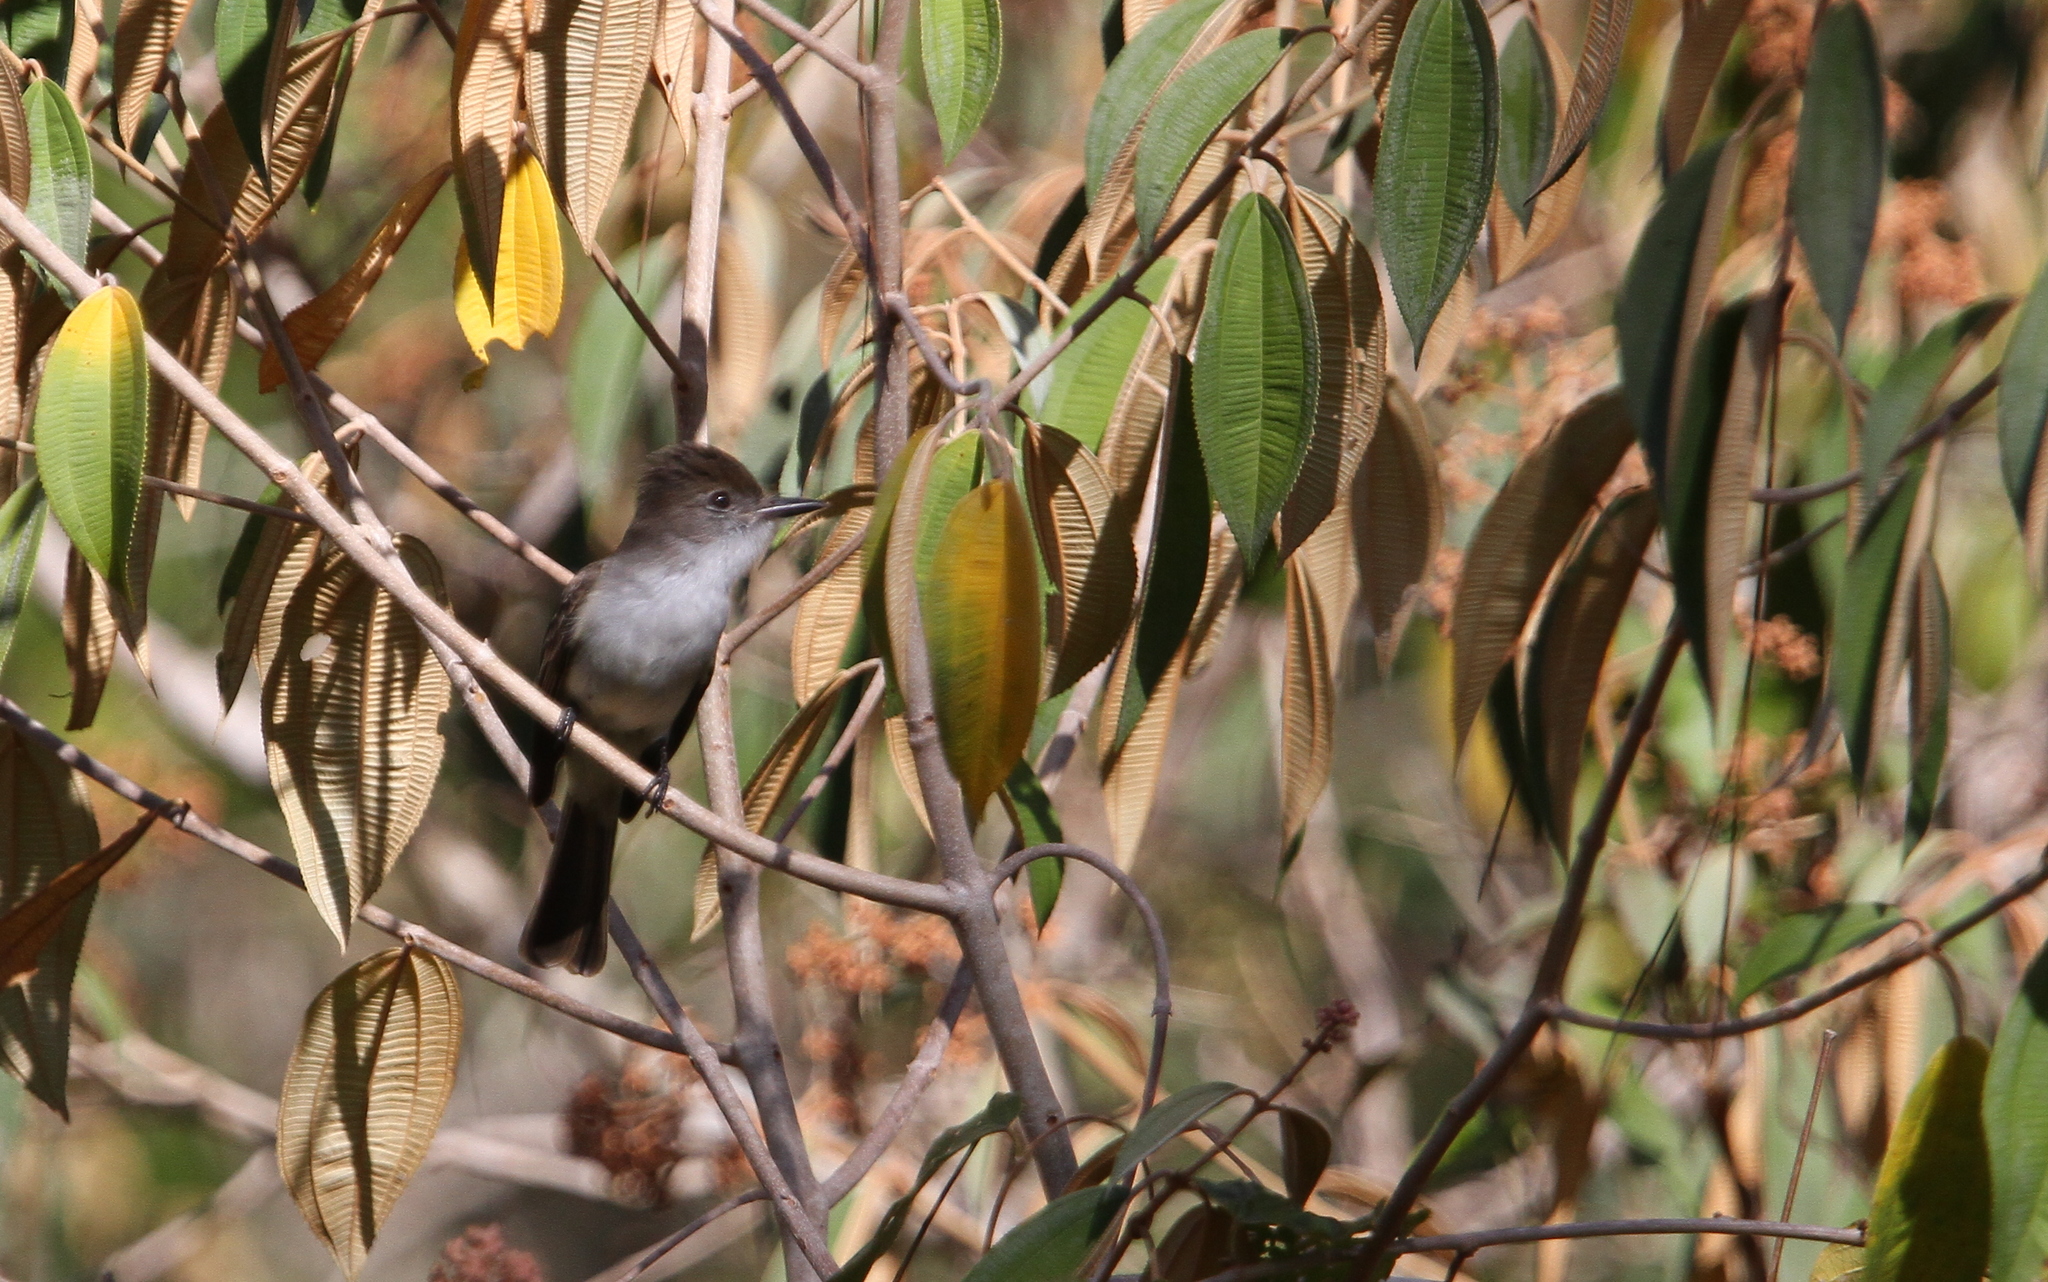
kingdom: Animalia
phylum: Chordata
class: Aves
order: Passeriformes
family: Tyrannidae
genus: Myiarchus
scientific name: Myiarchus sagrae
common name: La sagra's flycatcher
